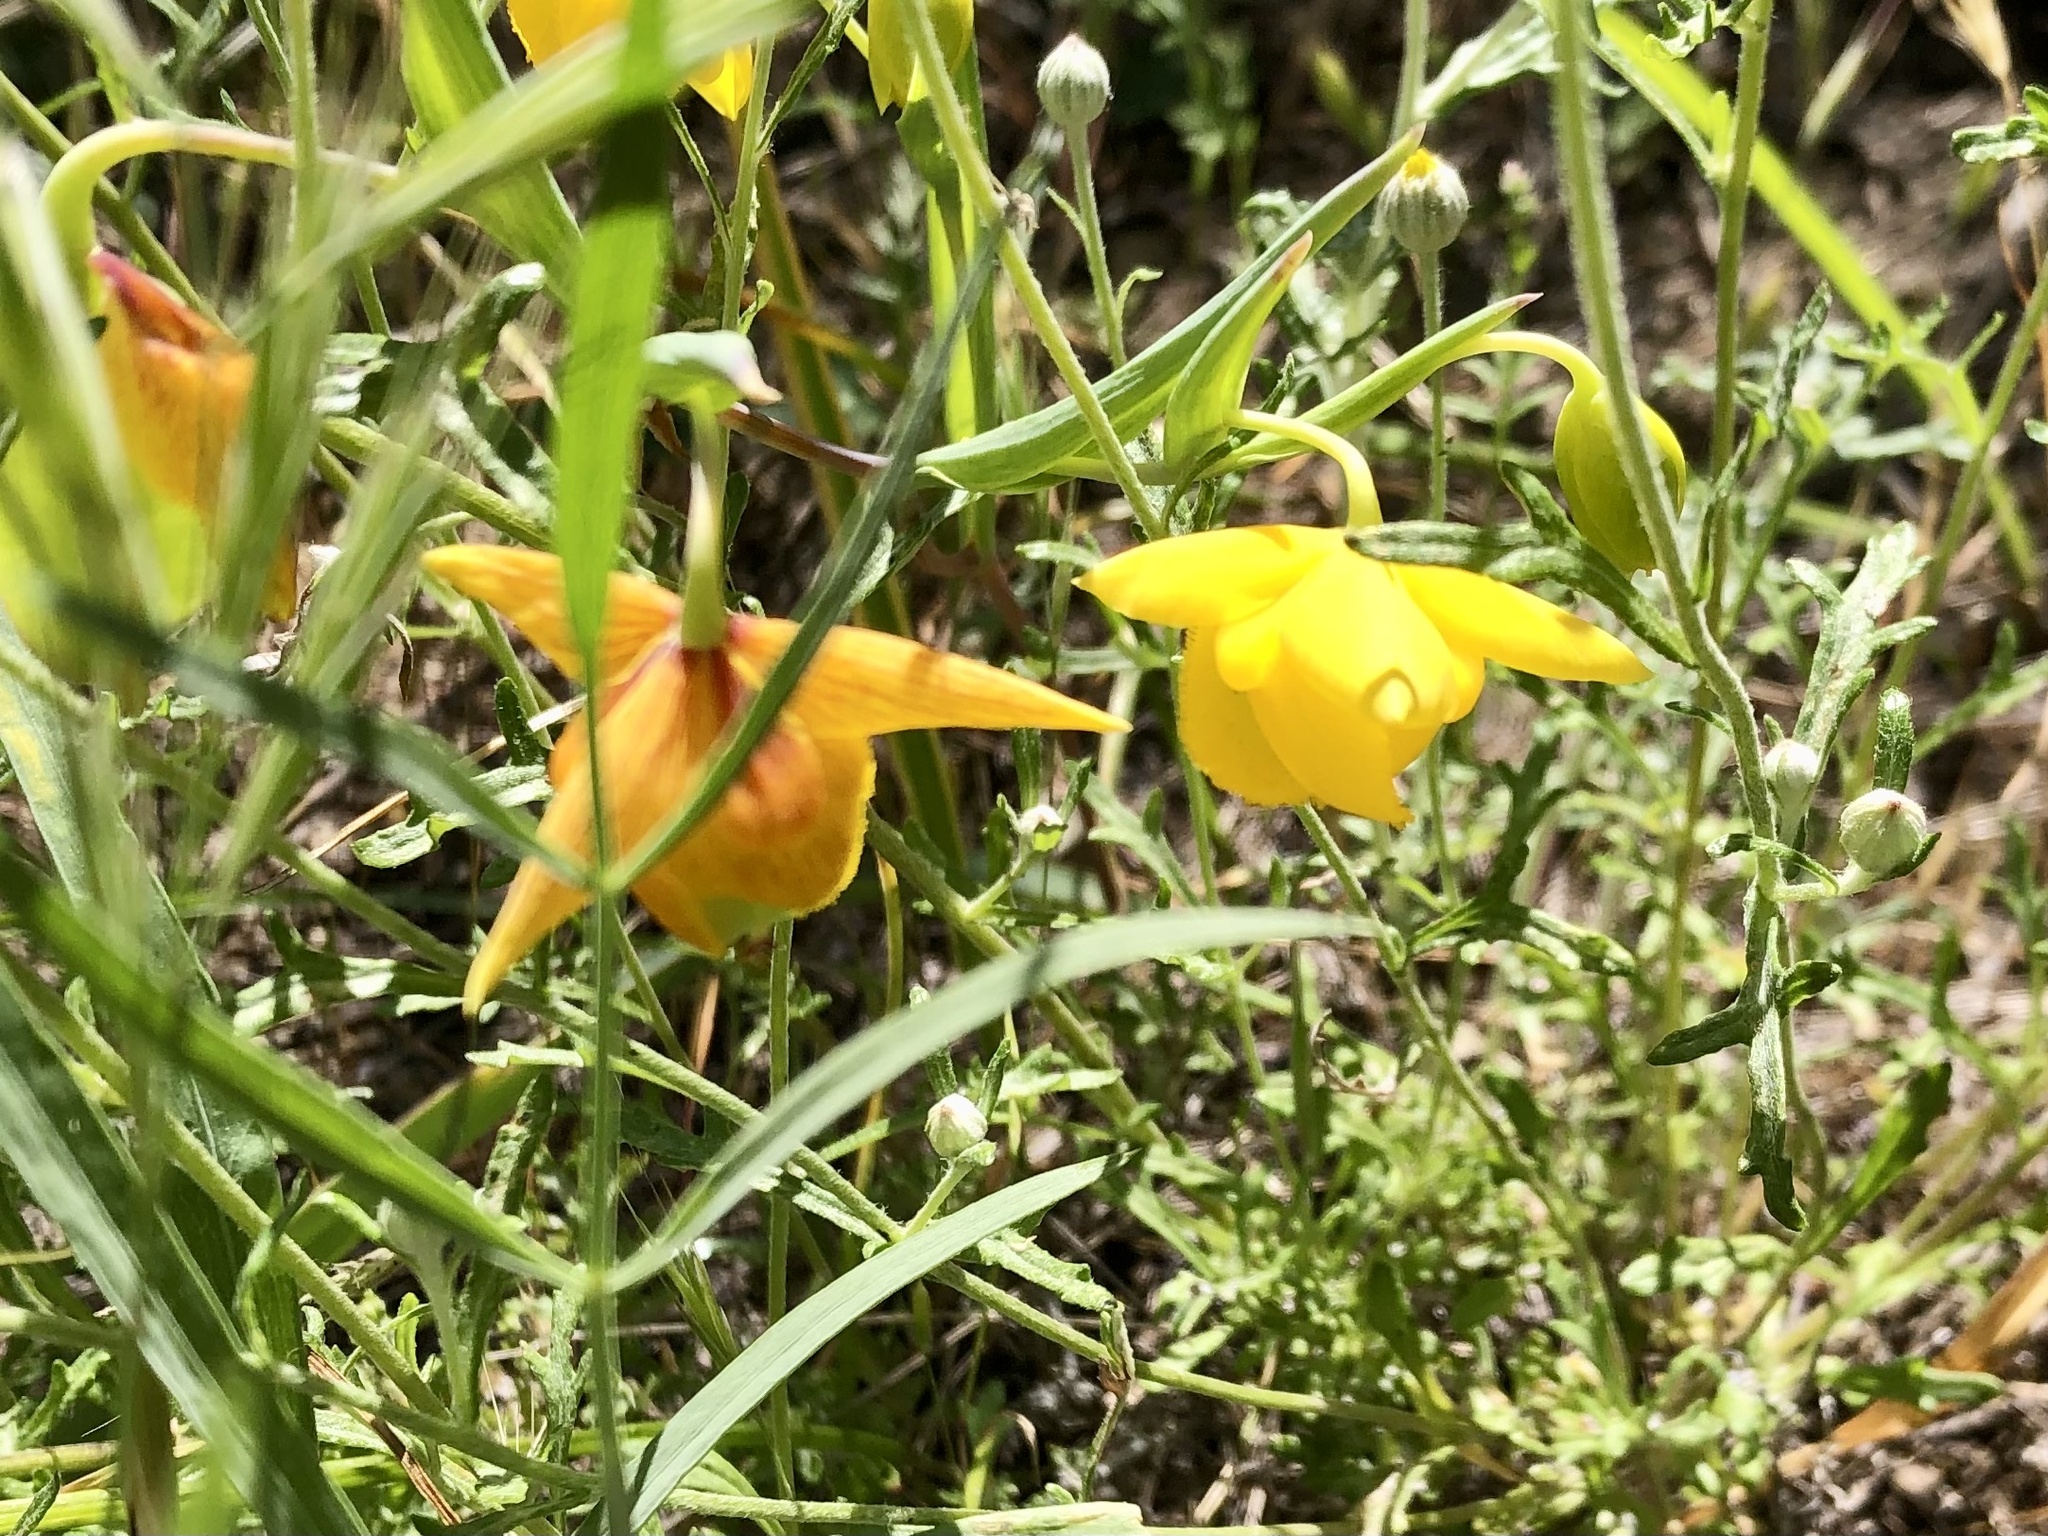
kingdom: Plantae
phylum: Tracheophyta
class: Liliopsida
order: Liliales
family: Liliaceae
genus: Calochortus
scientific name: Calochortus amabilis
